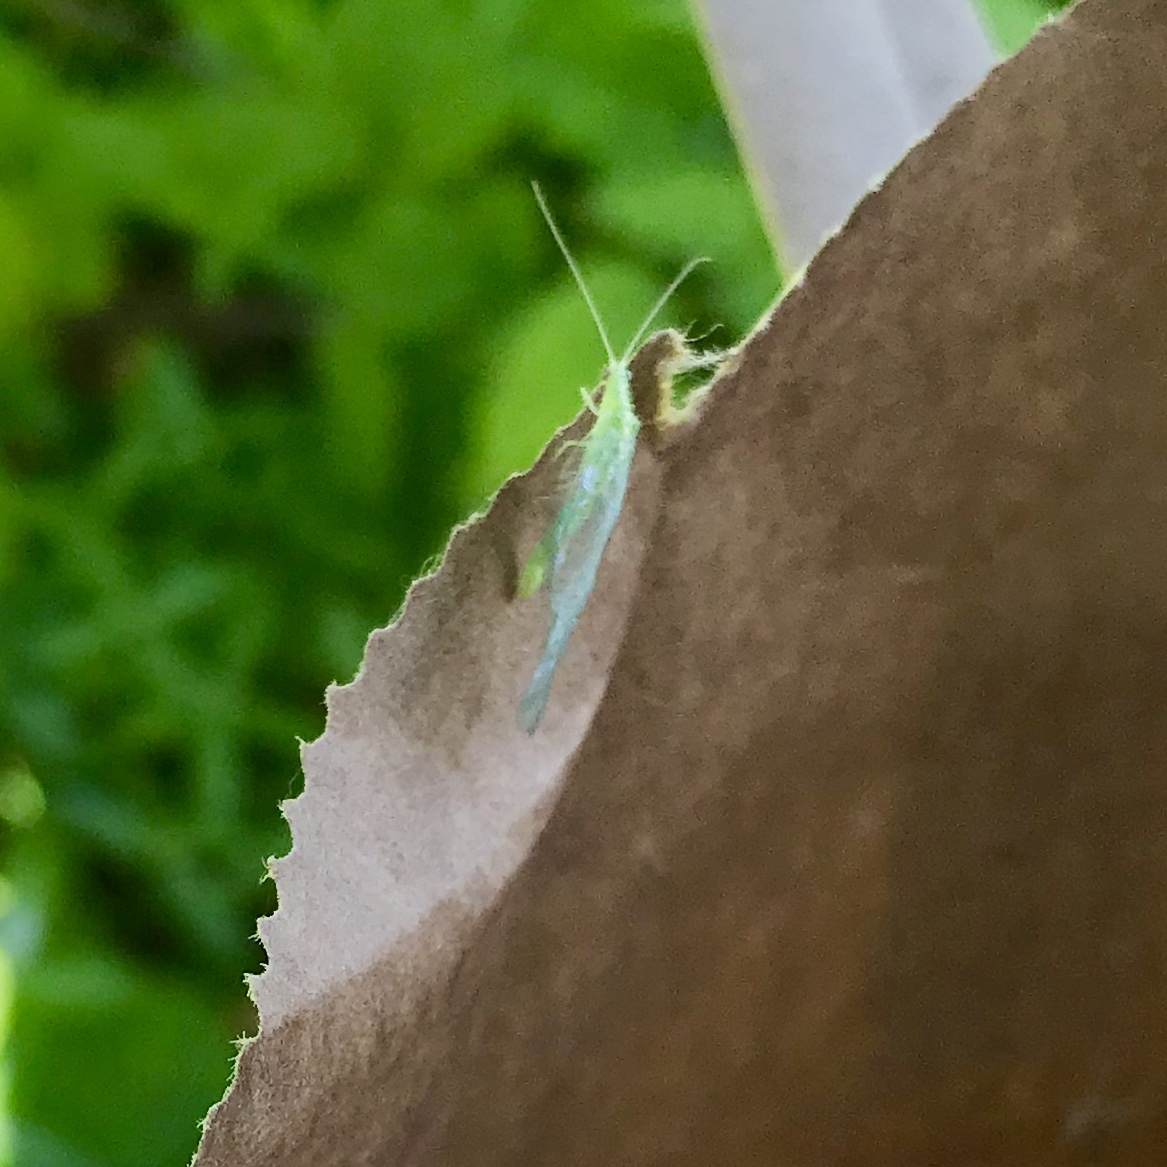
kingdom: Animalia
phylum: Arthropoda
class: Insecta
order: Neuroptera
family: Chrysopidae
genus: Chrysoperla
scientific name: Chrysoperla
